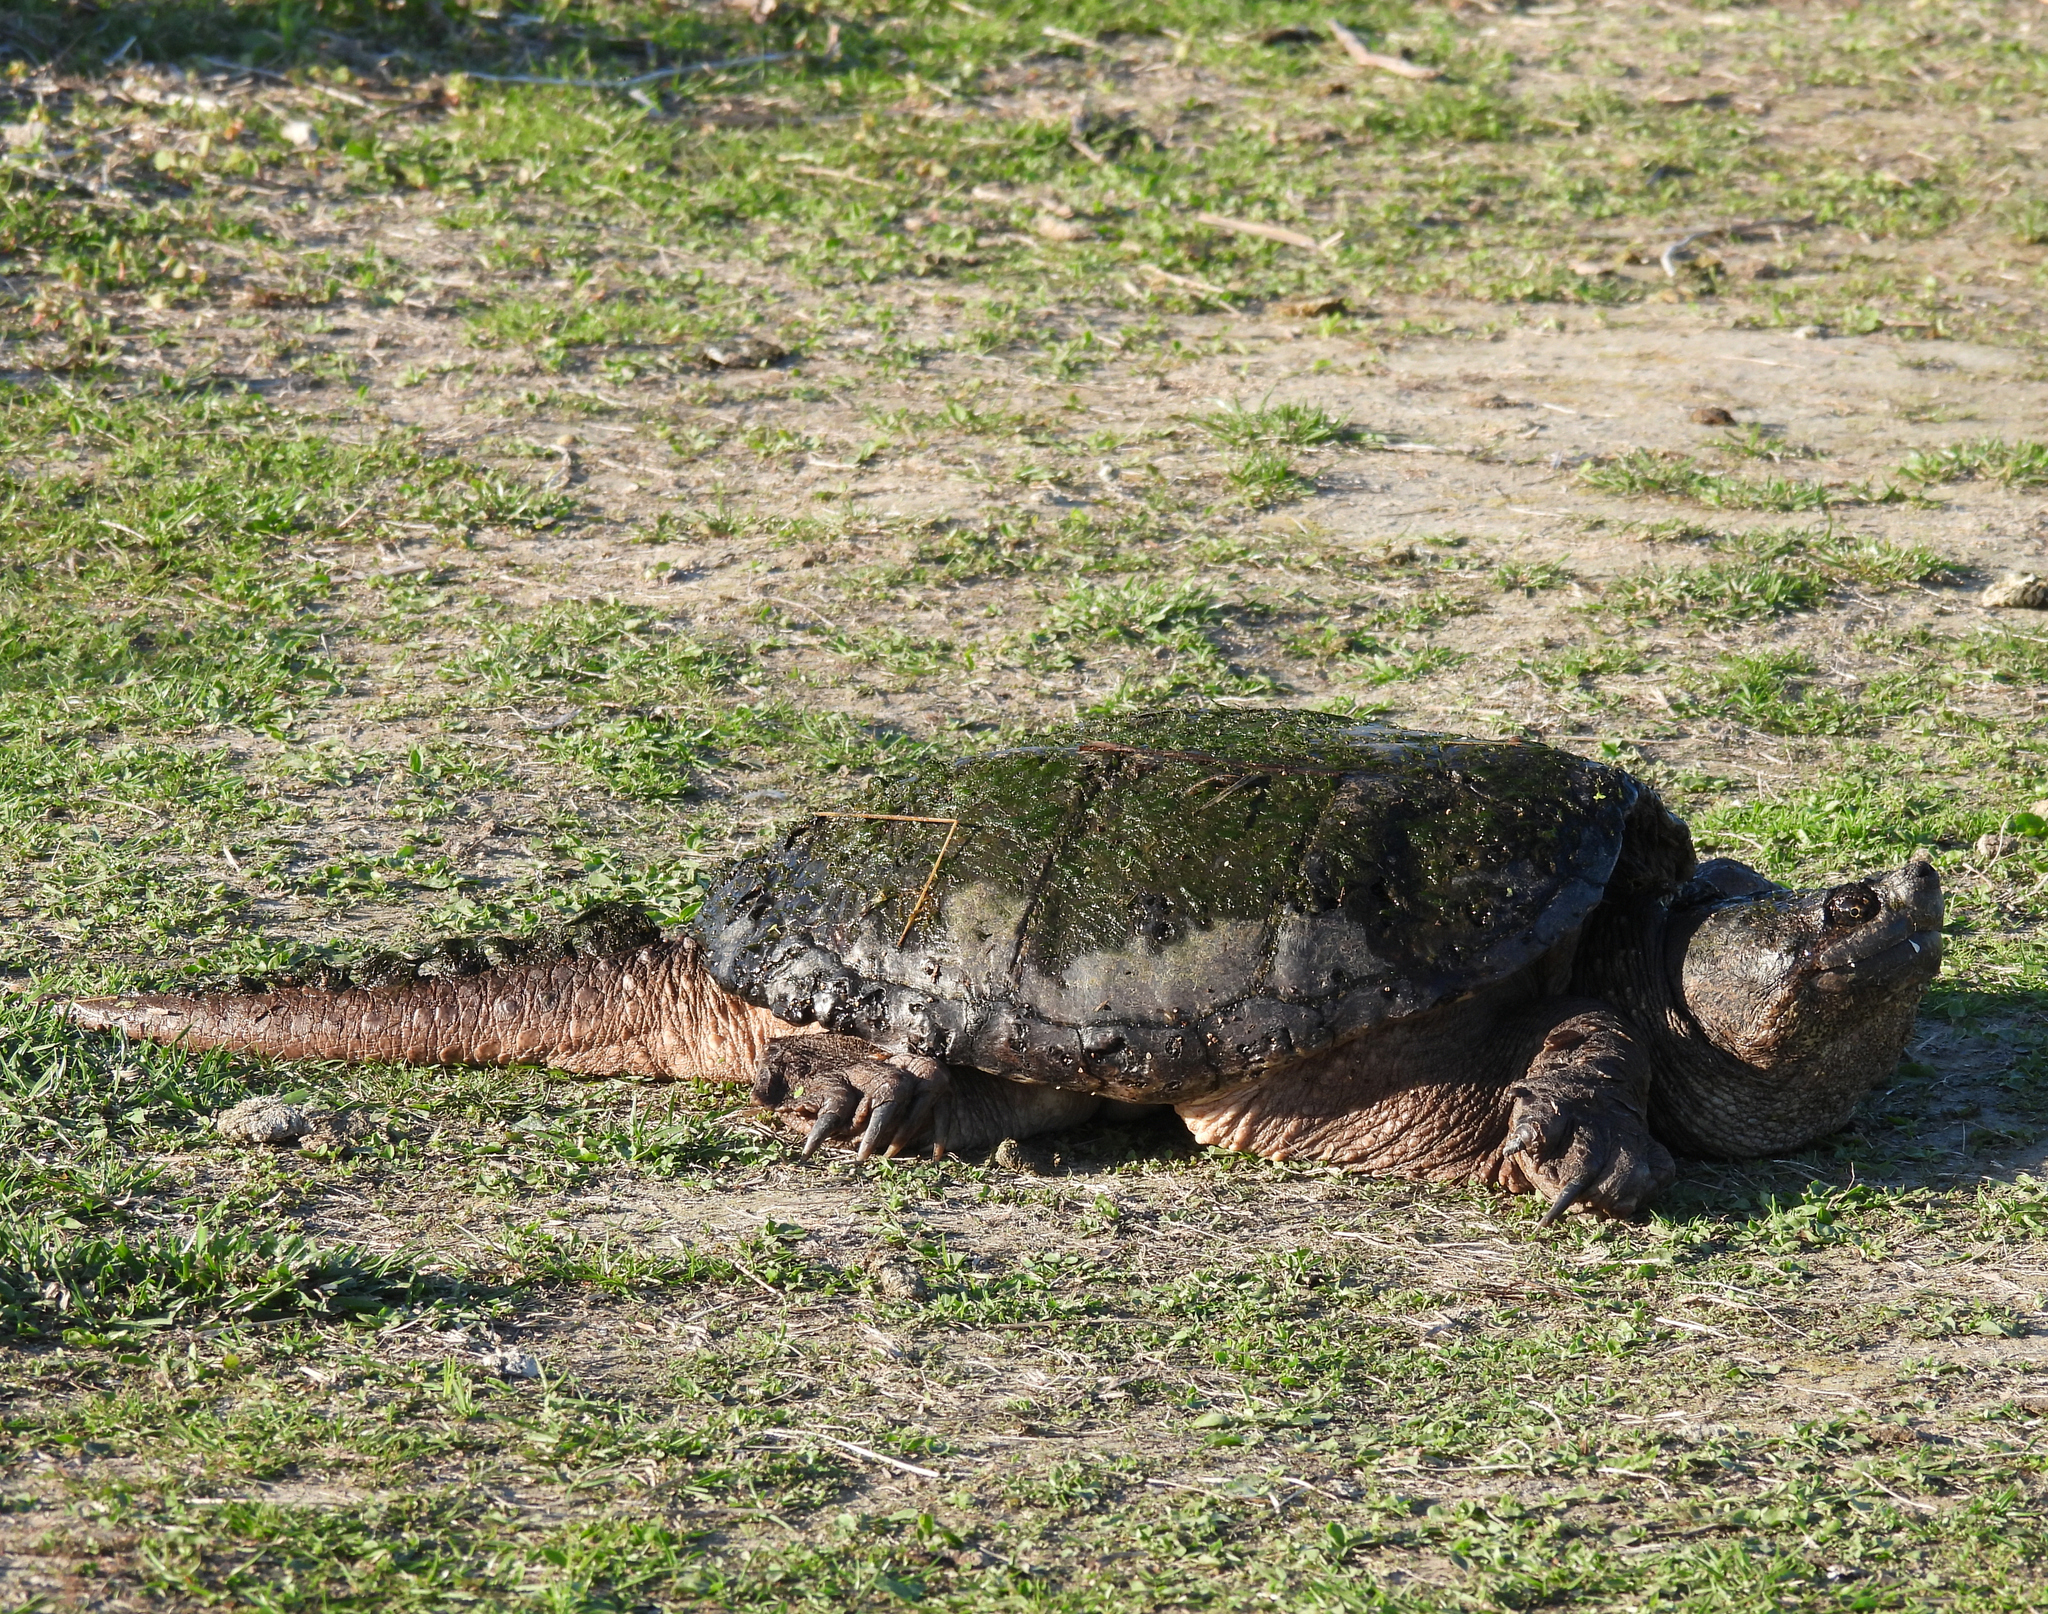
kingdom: Animalia
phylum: Chordata
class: Testudines
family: Chelydridae
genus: Chelydra
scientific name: Chelydra serpentina
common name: Common snapping turtle
